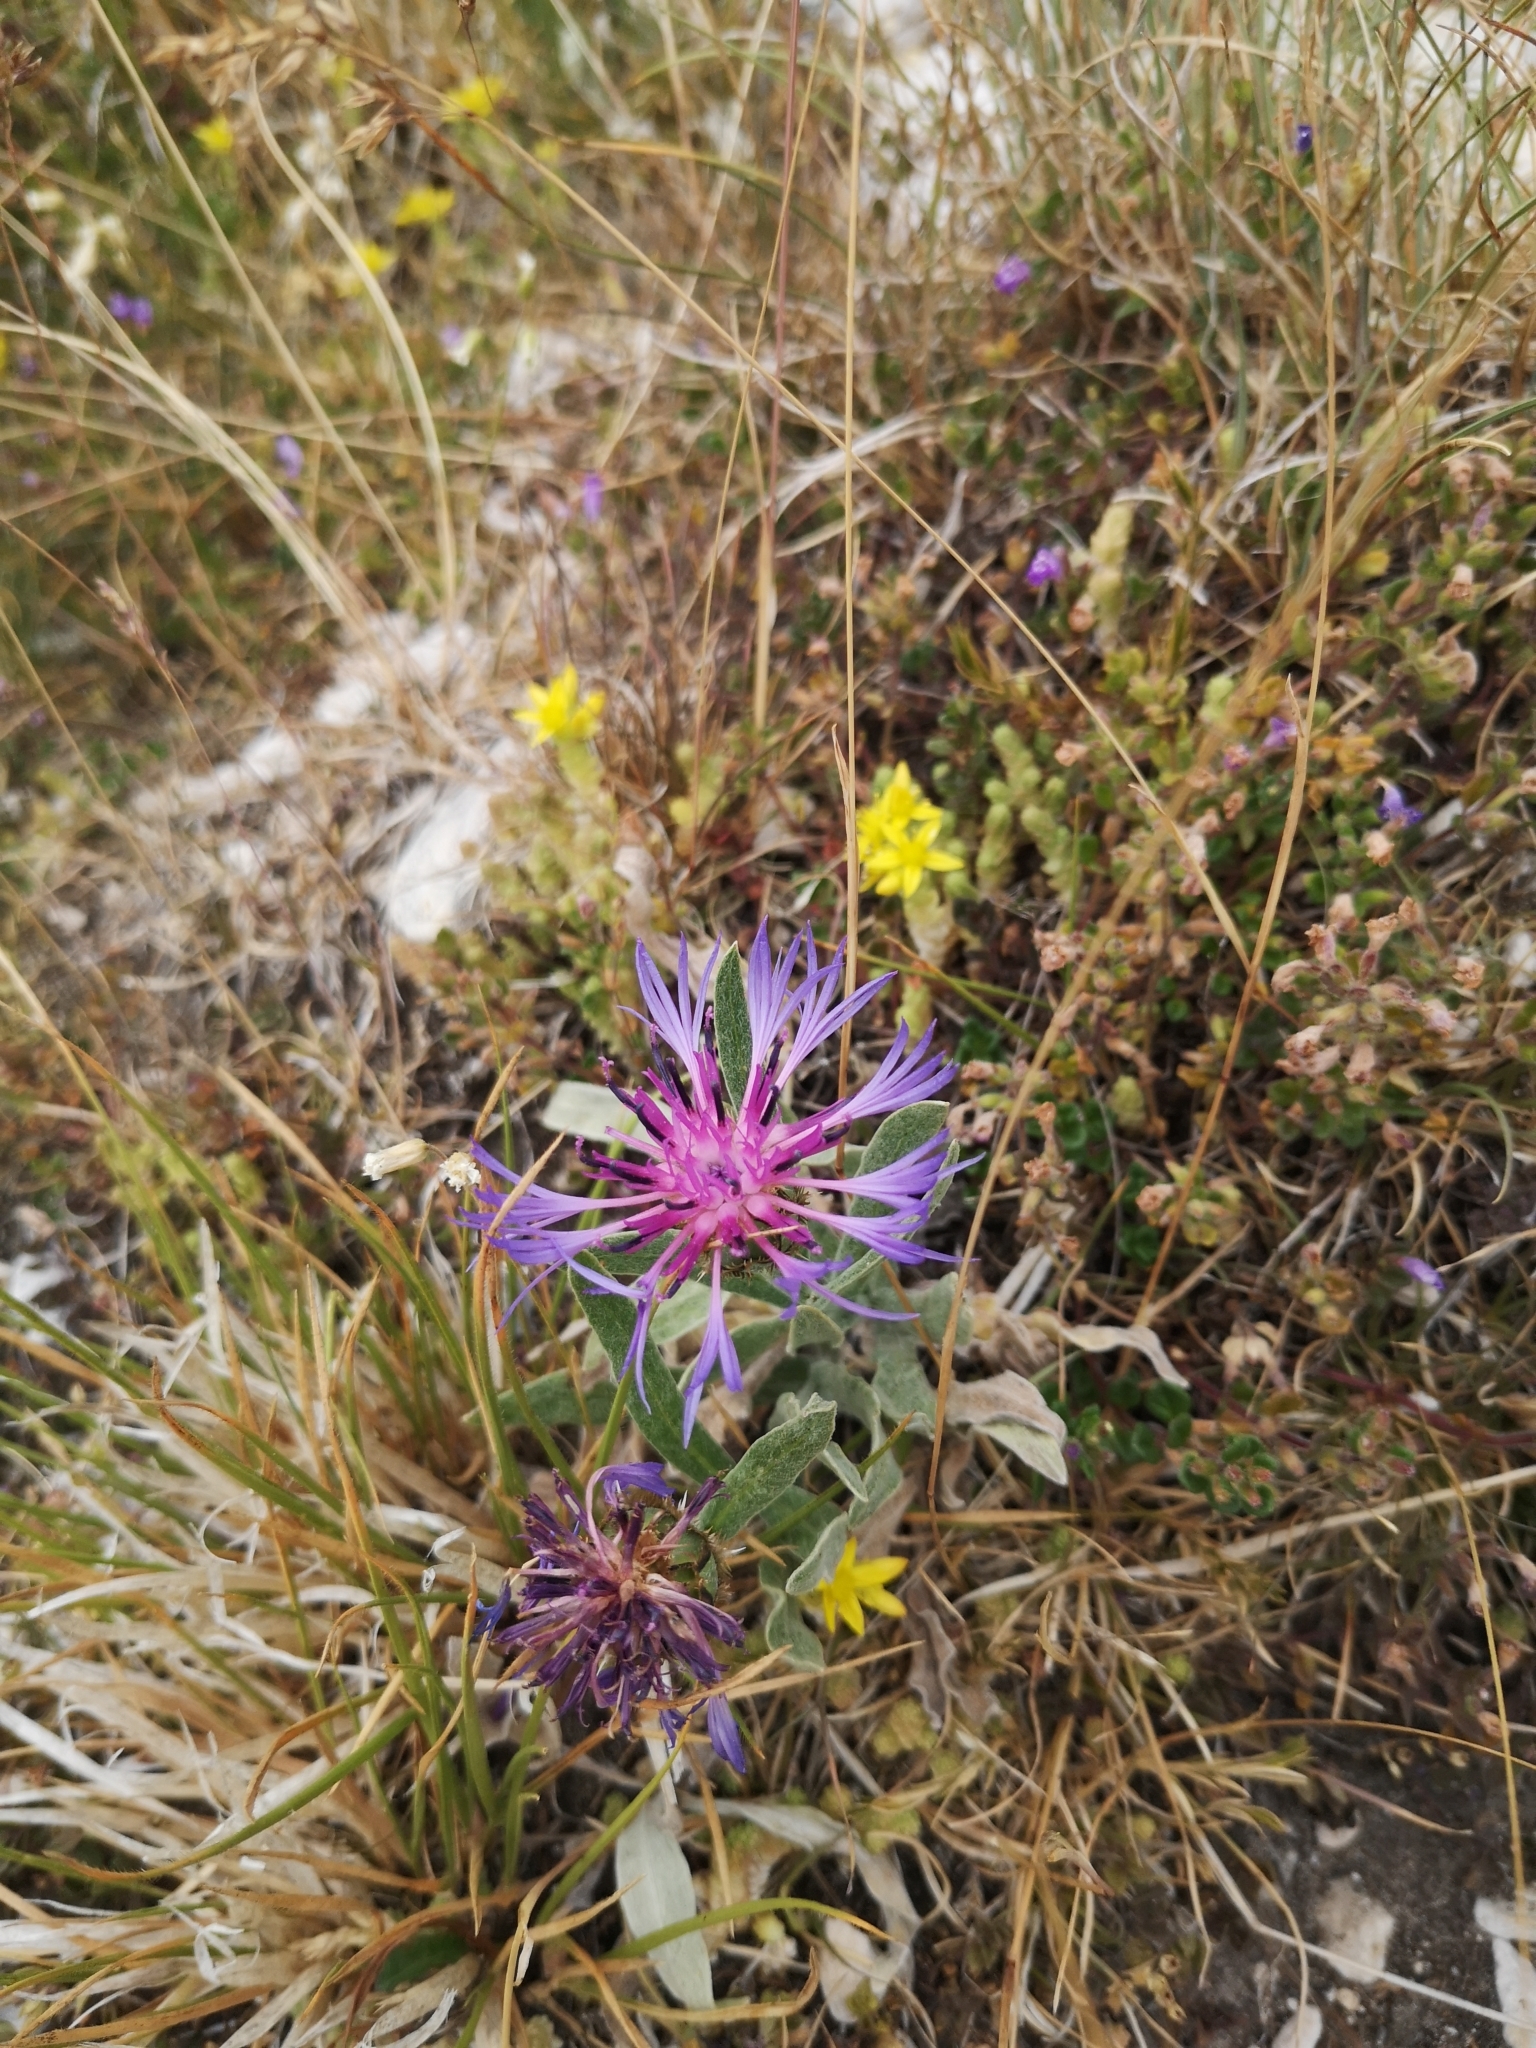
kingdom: Plantae
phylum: Tracheophyta
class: Magnoliopsida
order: Asterales
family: Asteraceae
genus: Centaurea
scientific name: Centaurea triumfettii
